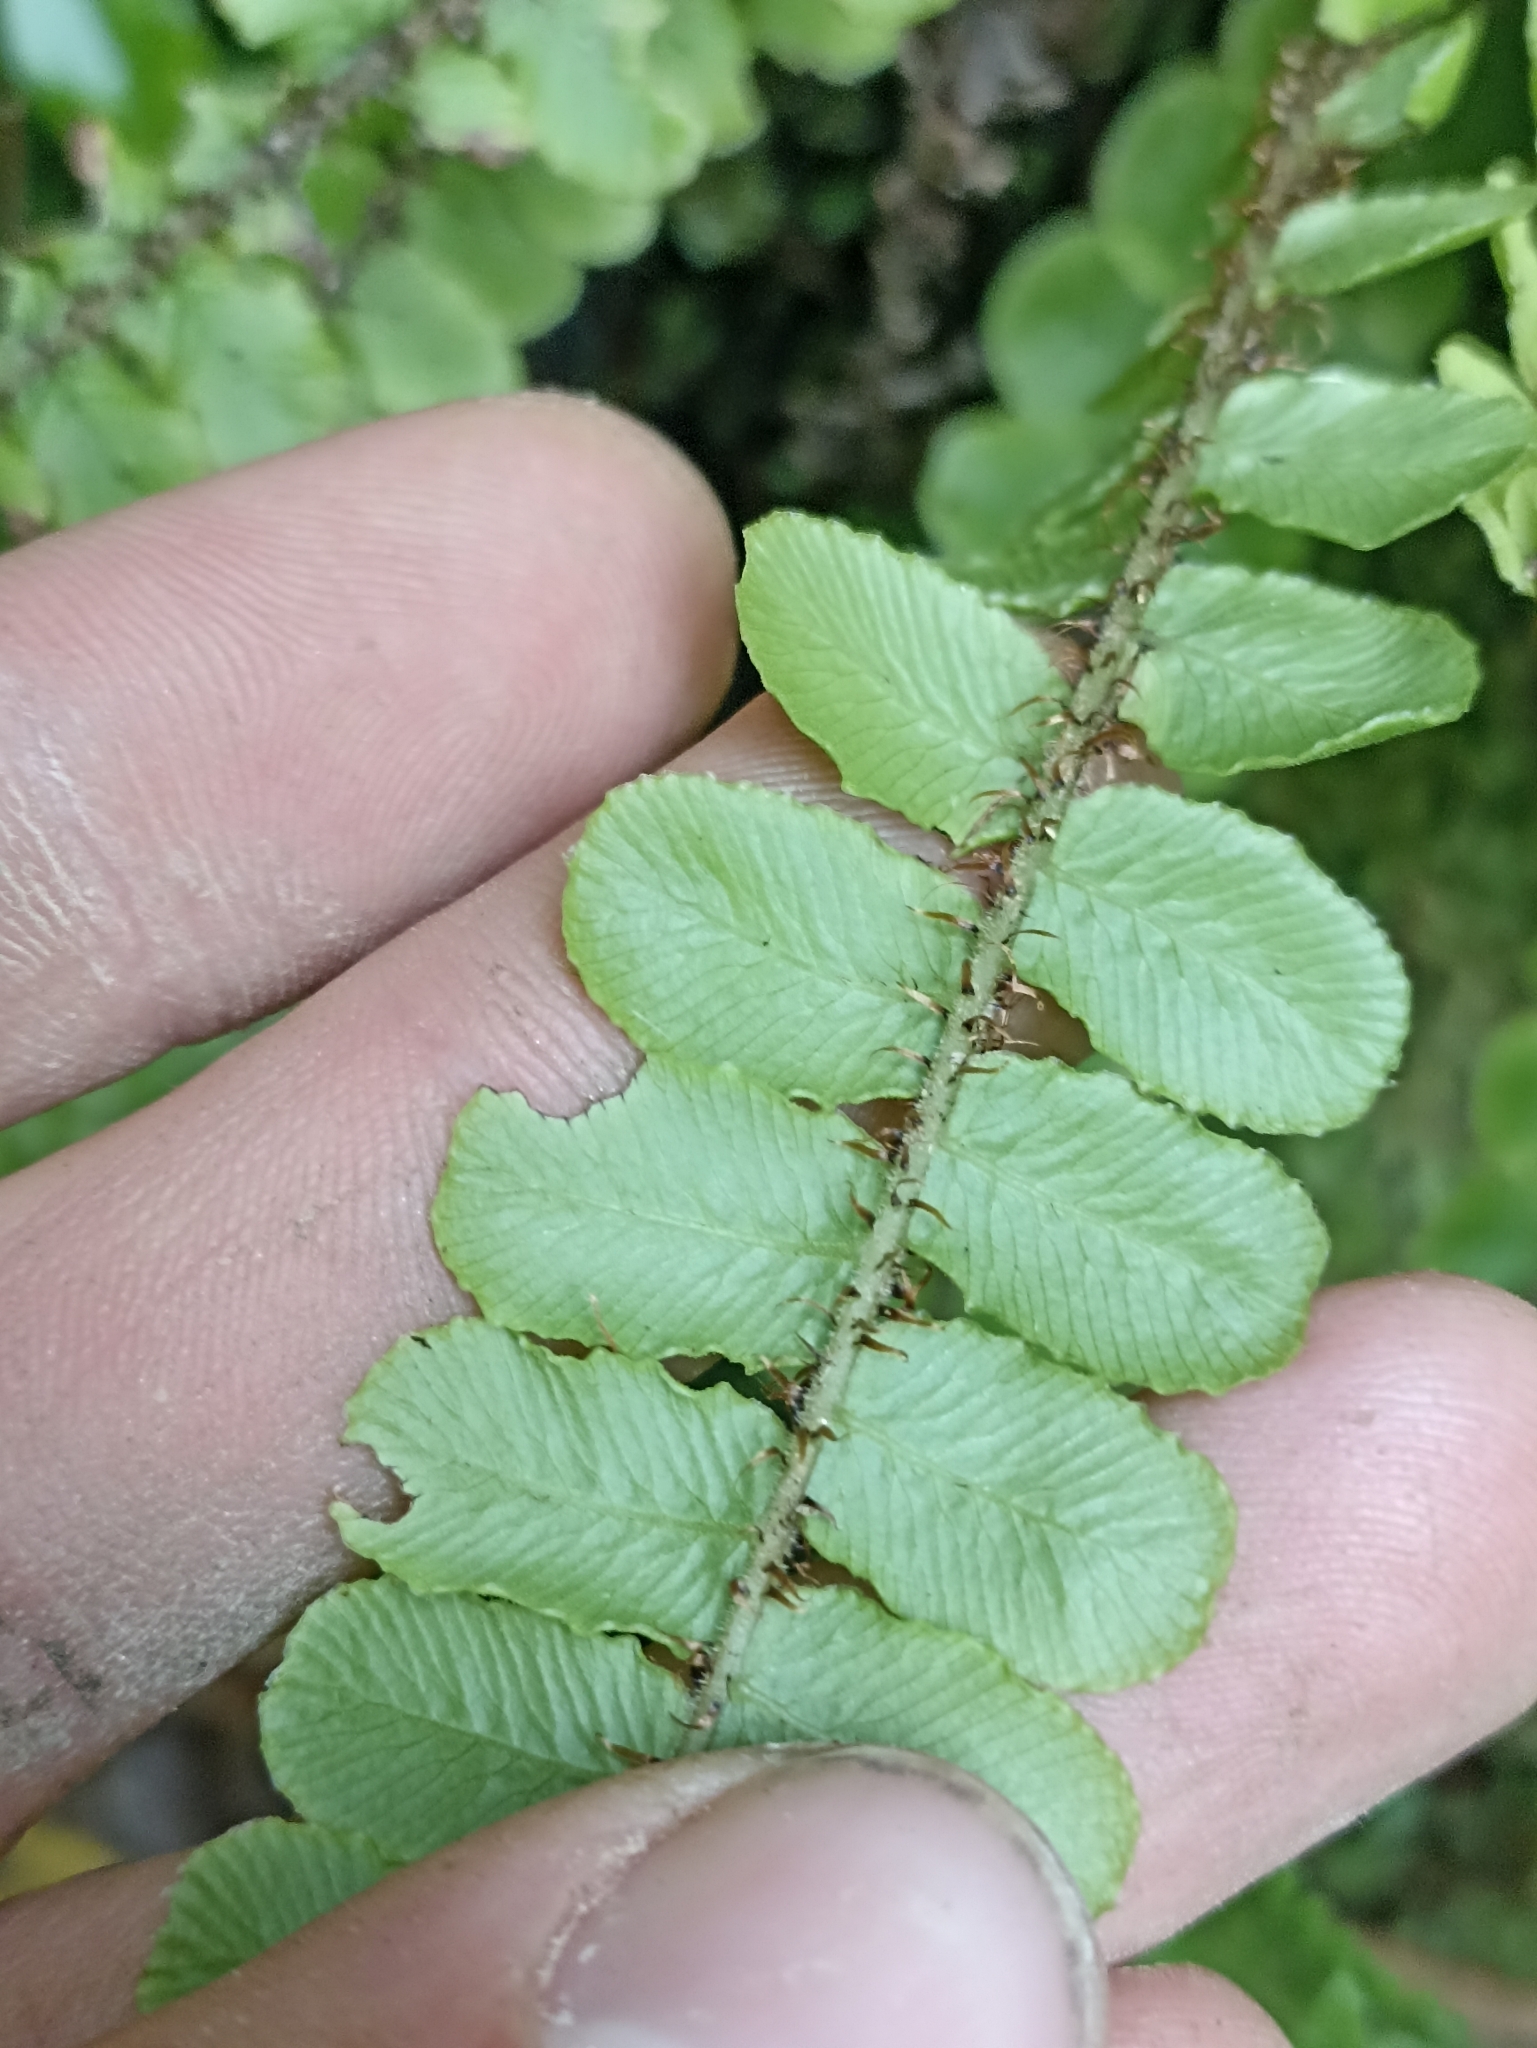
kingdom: Plantae
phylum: Tracheophyta
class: Polypodiopsida
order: Polypodiales
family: Blechnaceae
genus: Cranfillia
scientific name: Cranfillia fluviatilis
